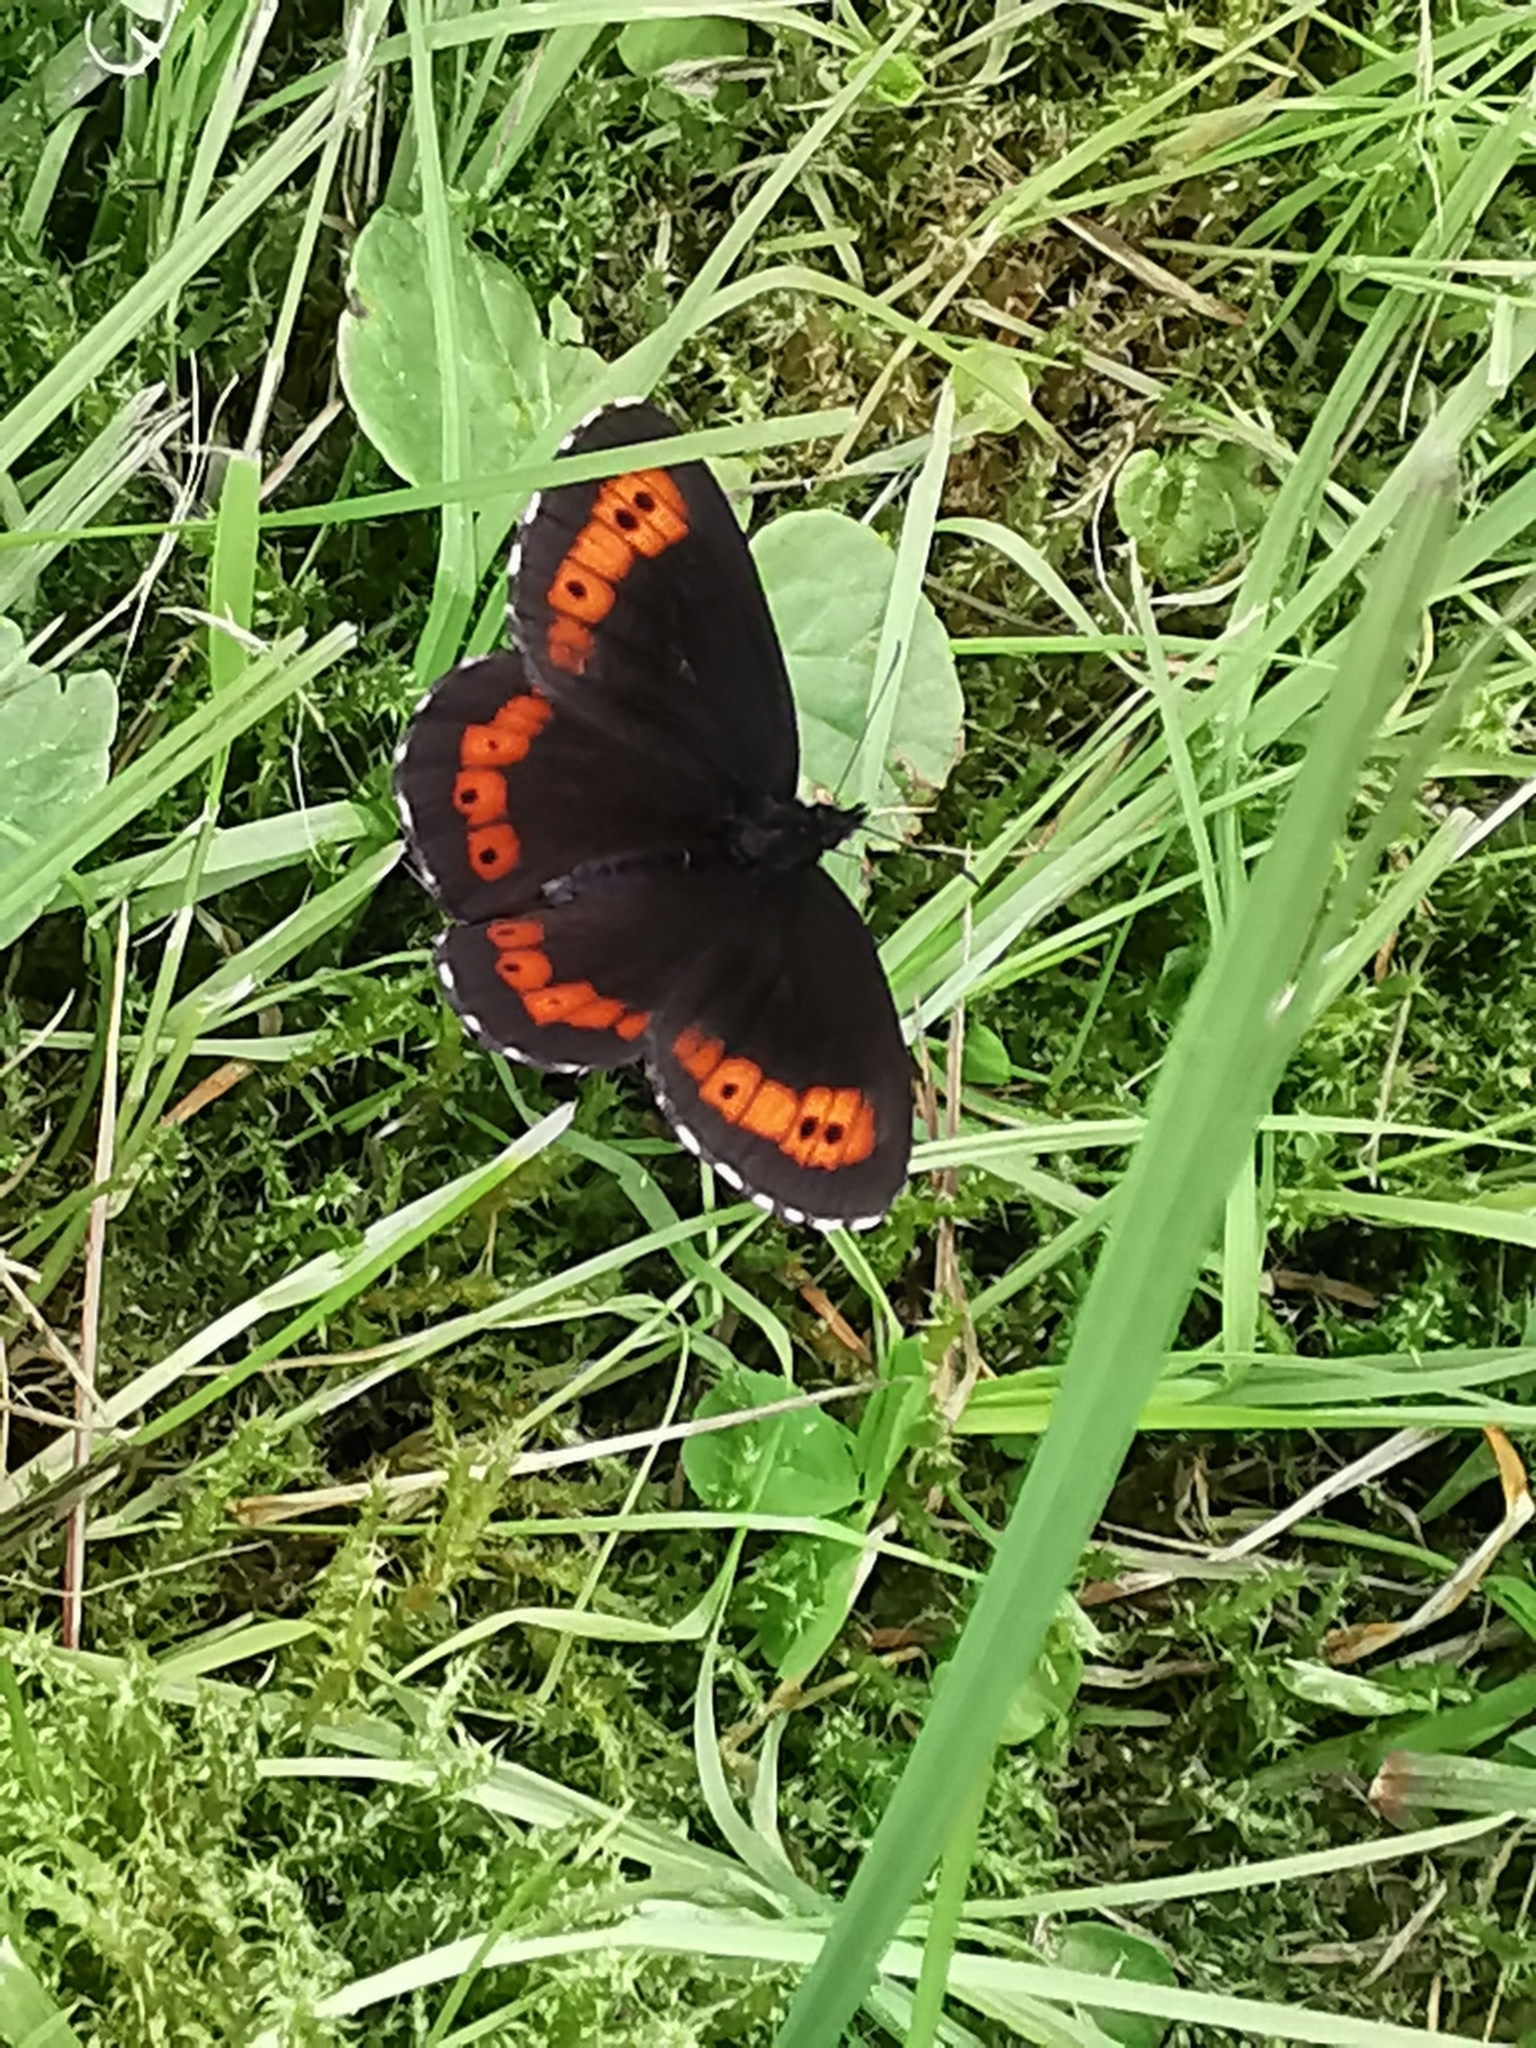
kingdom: Animalia
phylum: Arthropoda
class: Insecta
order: Lepidoptera
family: Nymphalidae
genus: Erebia
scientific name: Erebia ligea
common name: Arran brown
